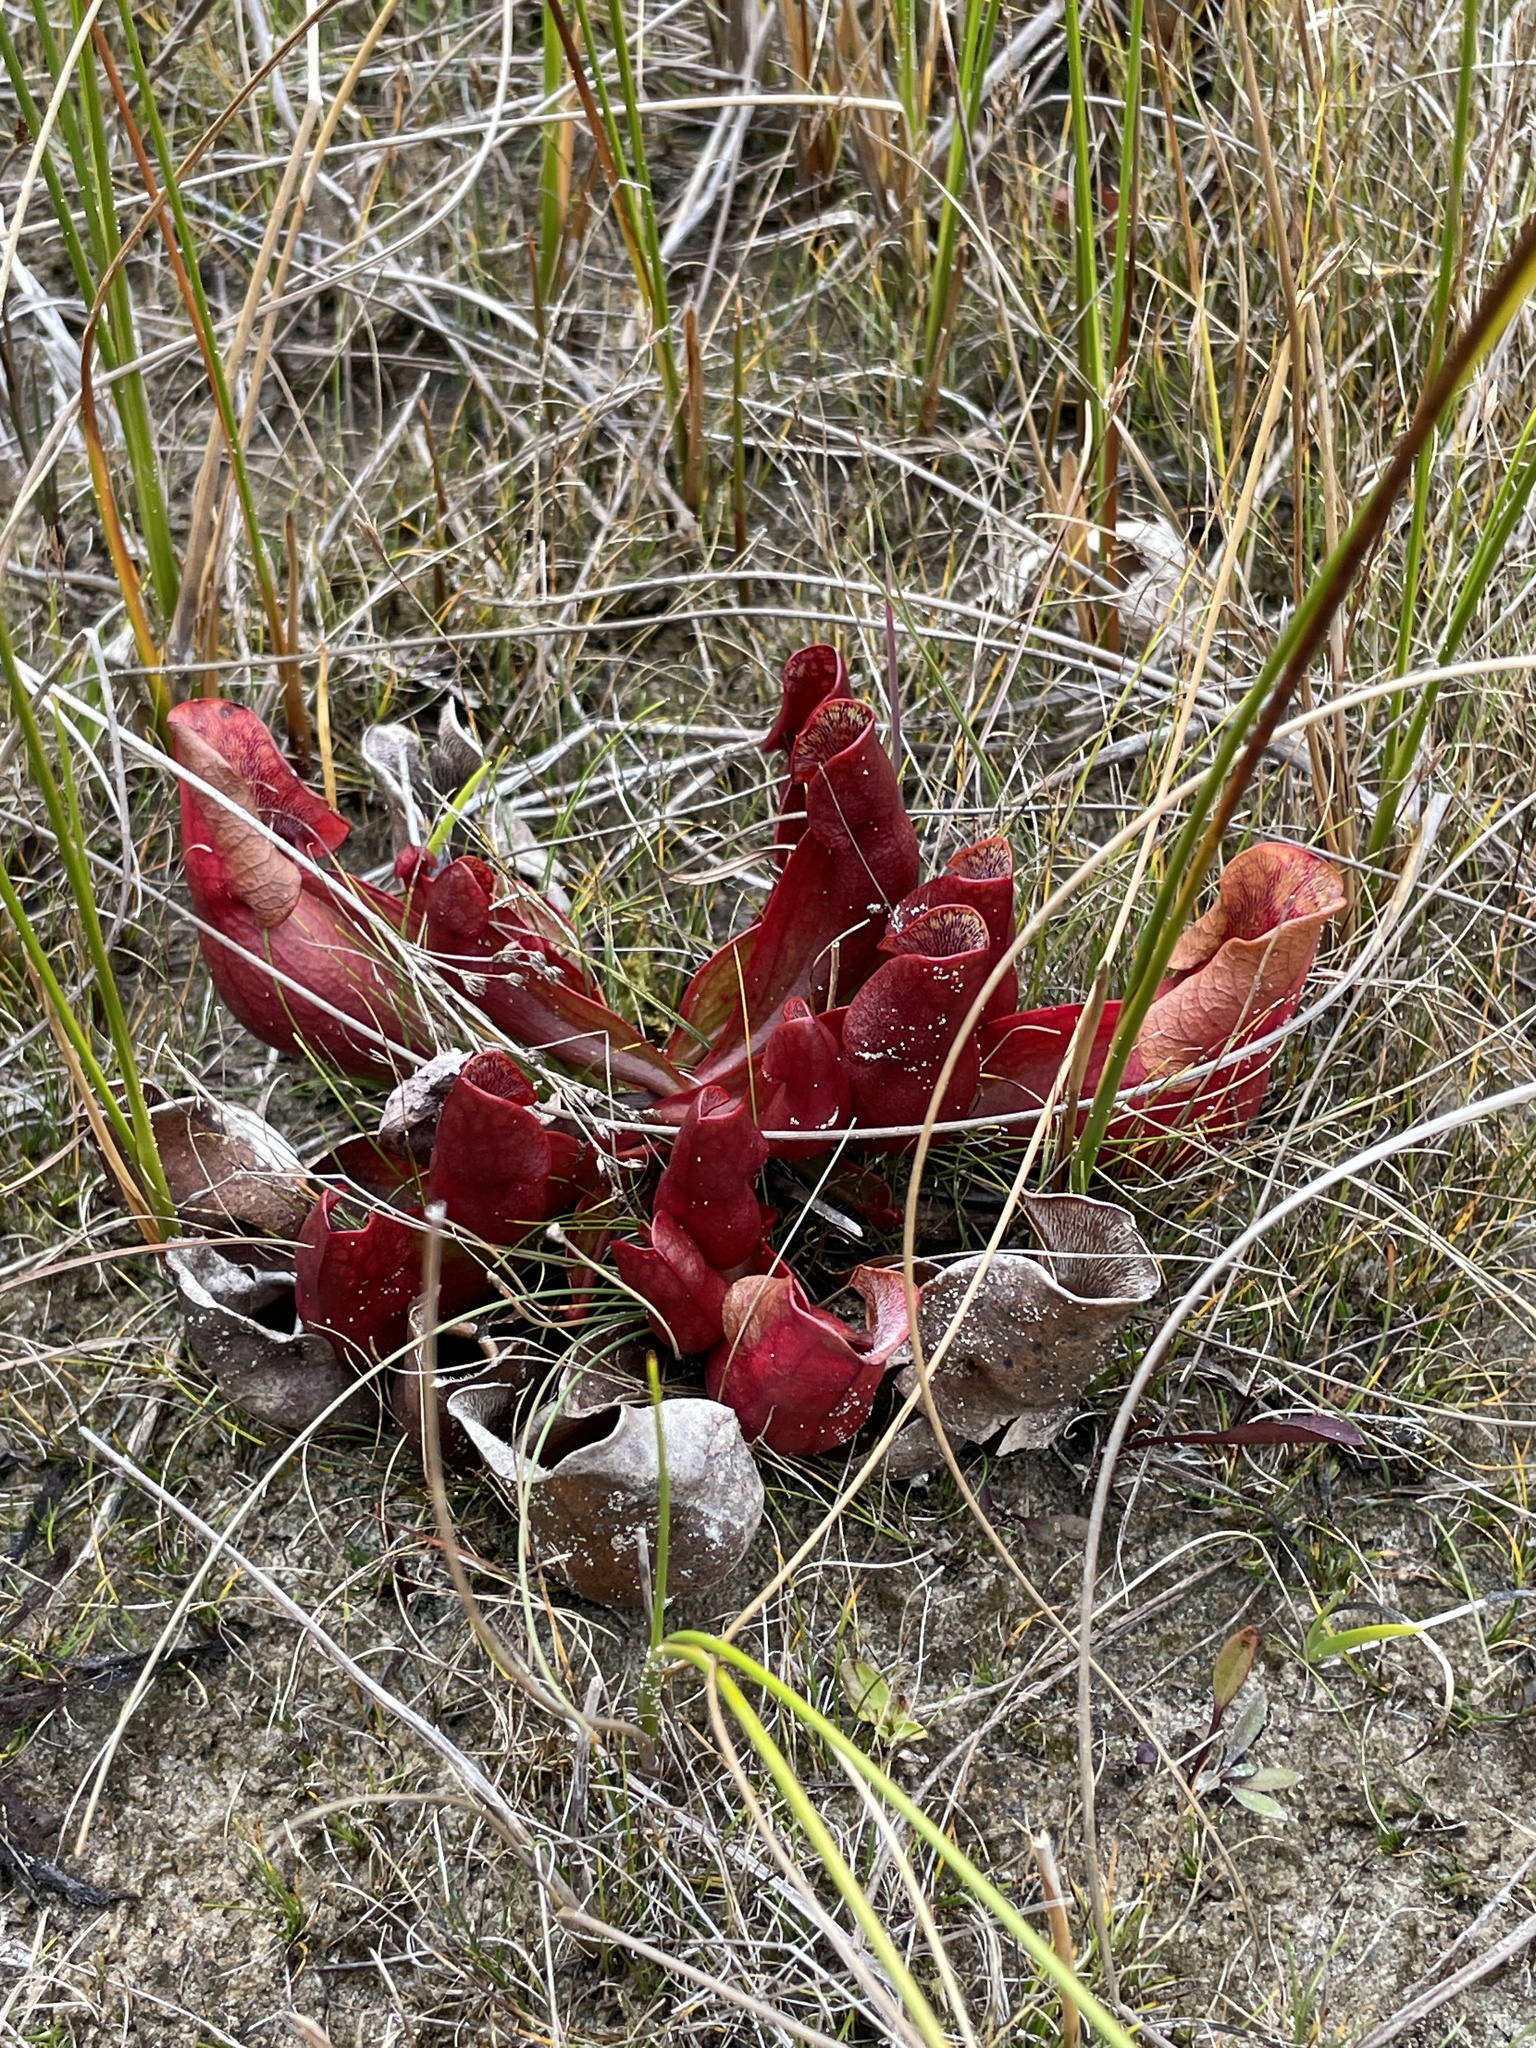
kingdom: Plantae
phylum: Tracheophyta
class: Magnoliopsida
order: Ericales
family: Sarraceniaceae
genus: Sarracenia
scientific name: Sarracenia purpurea
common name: Pitcherplant
